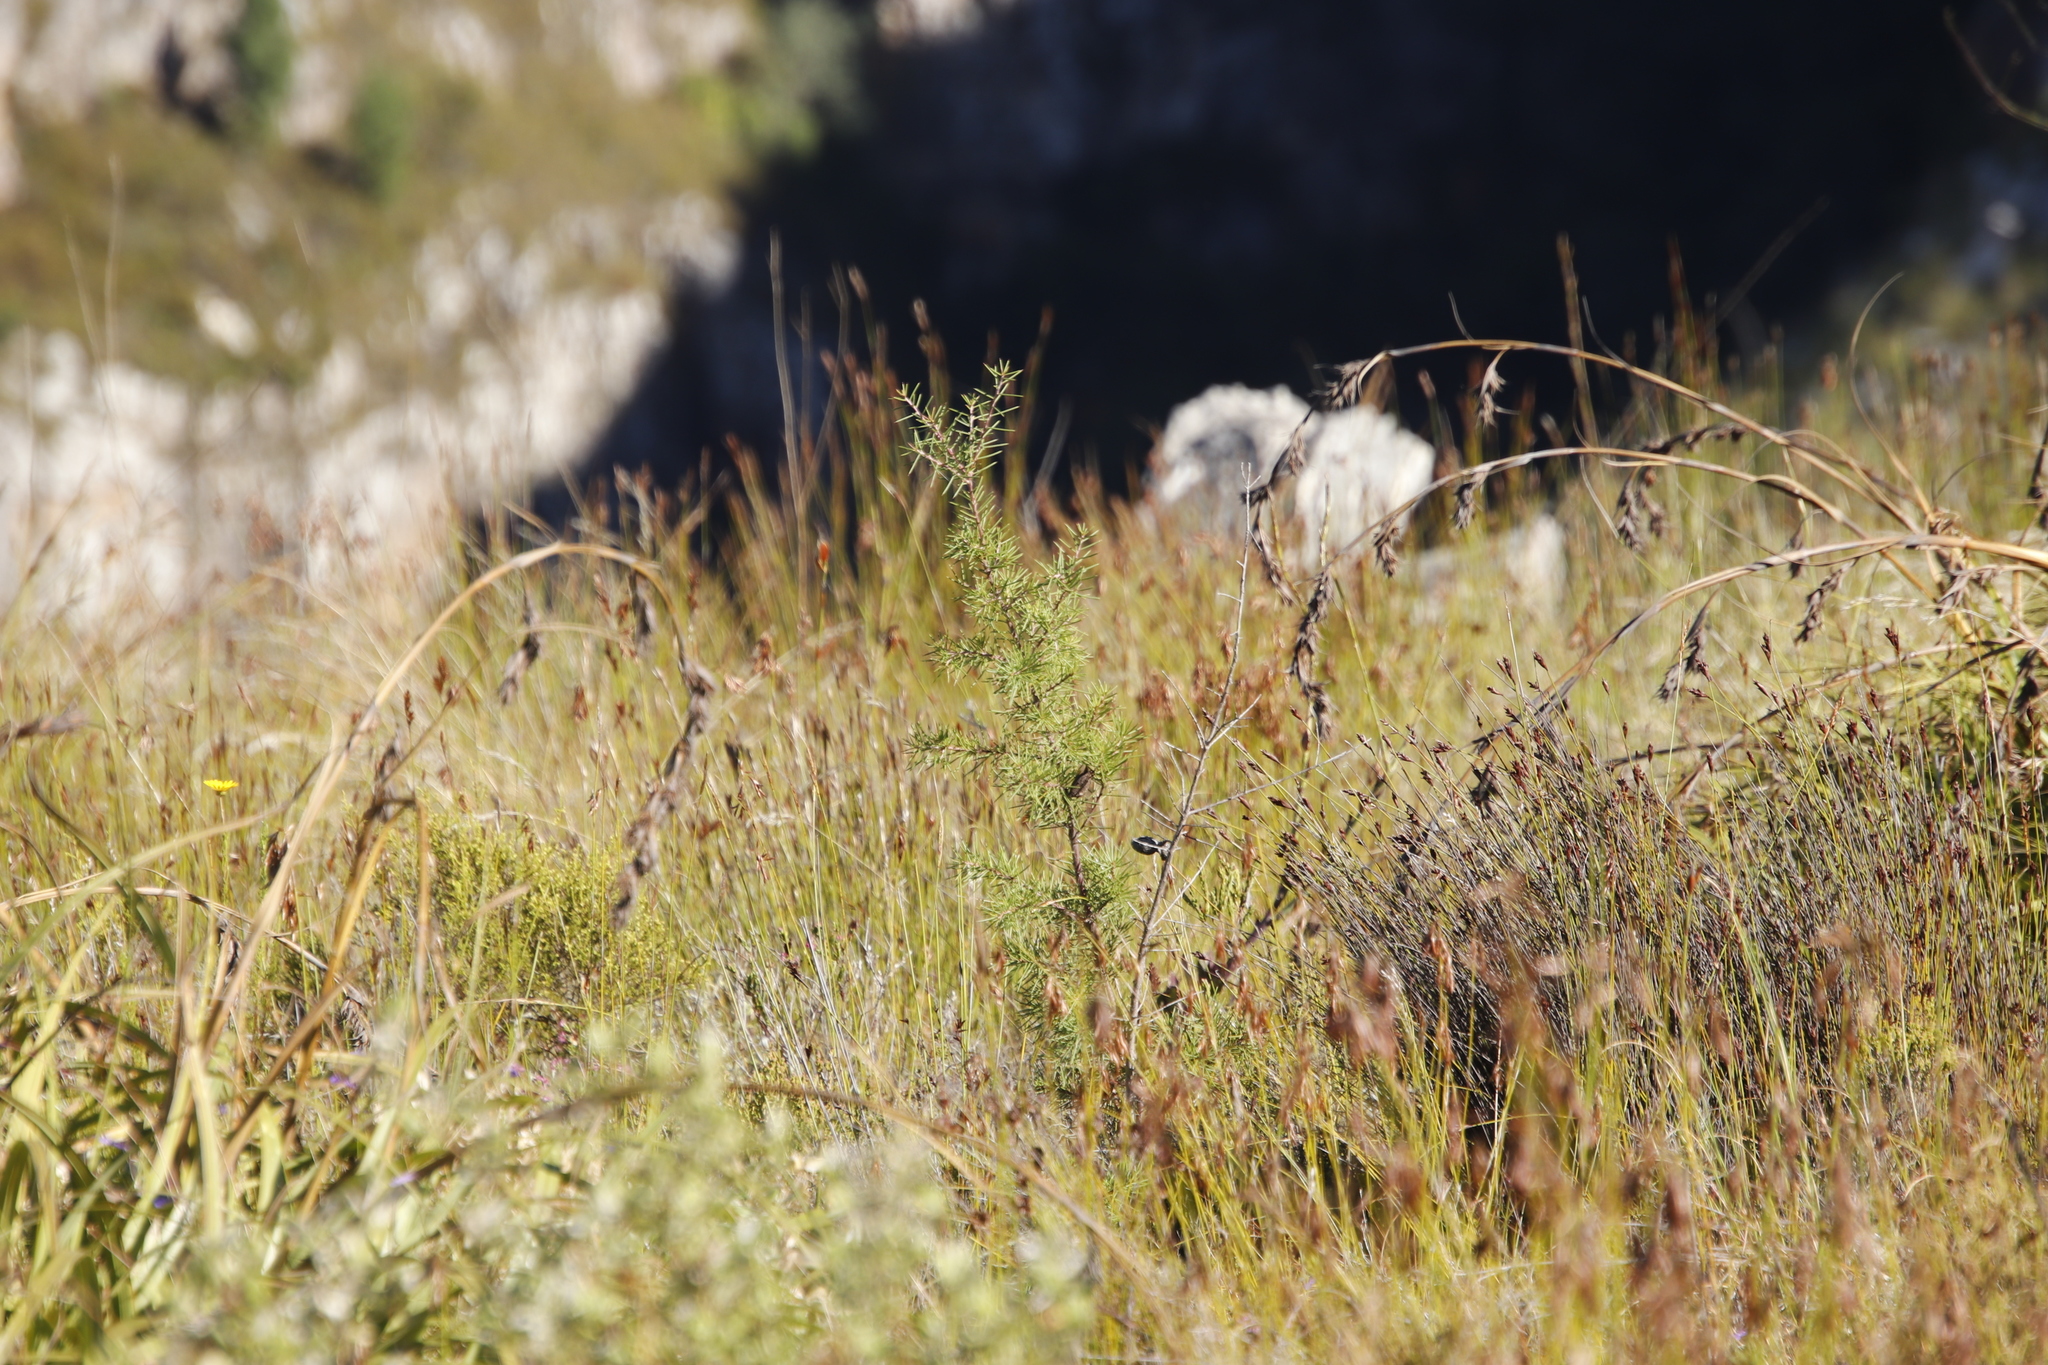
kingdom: Plantae
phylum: Tracheophyta
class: Magnoliopsida
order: Proteales
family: Proteaceae
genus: Hakea
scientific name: Hakea sericea
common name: Needle bush
